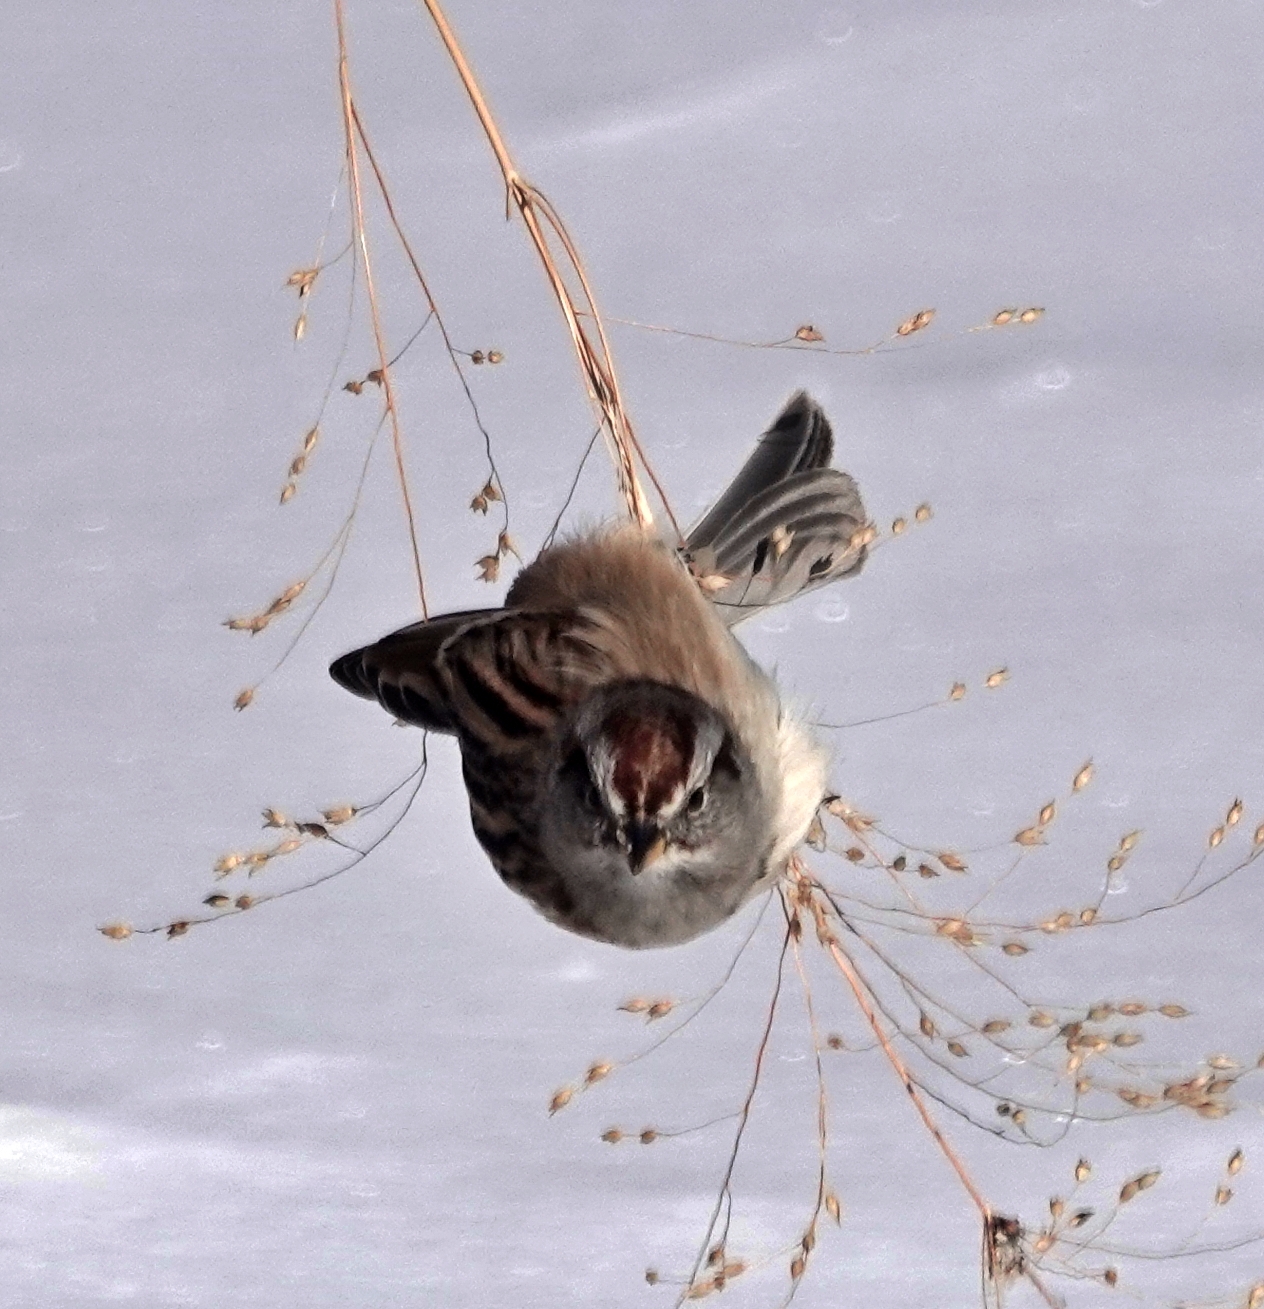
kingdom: Animalia
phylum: Chordata
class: Aves
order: Passeriformes
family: Passerellidae
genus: Spizelloides
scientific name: Spizelloides arborea
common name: American tree sparrow
